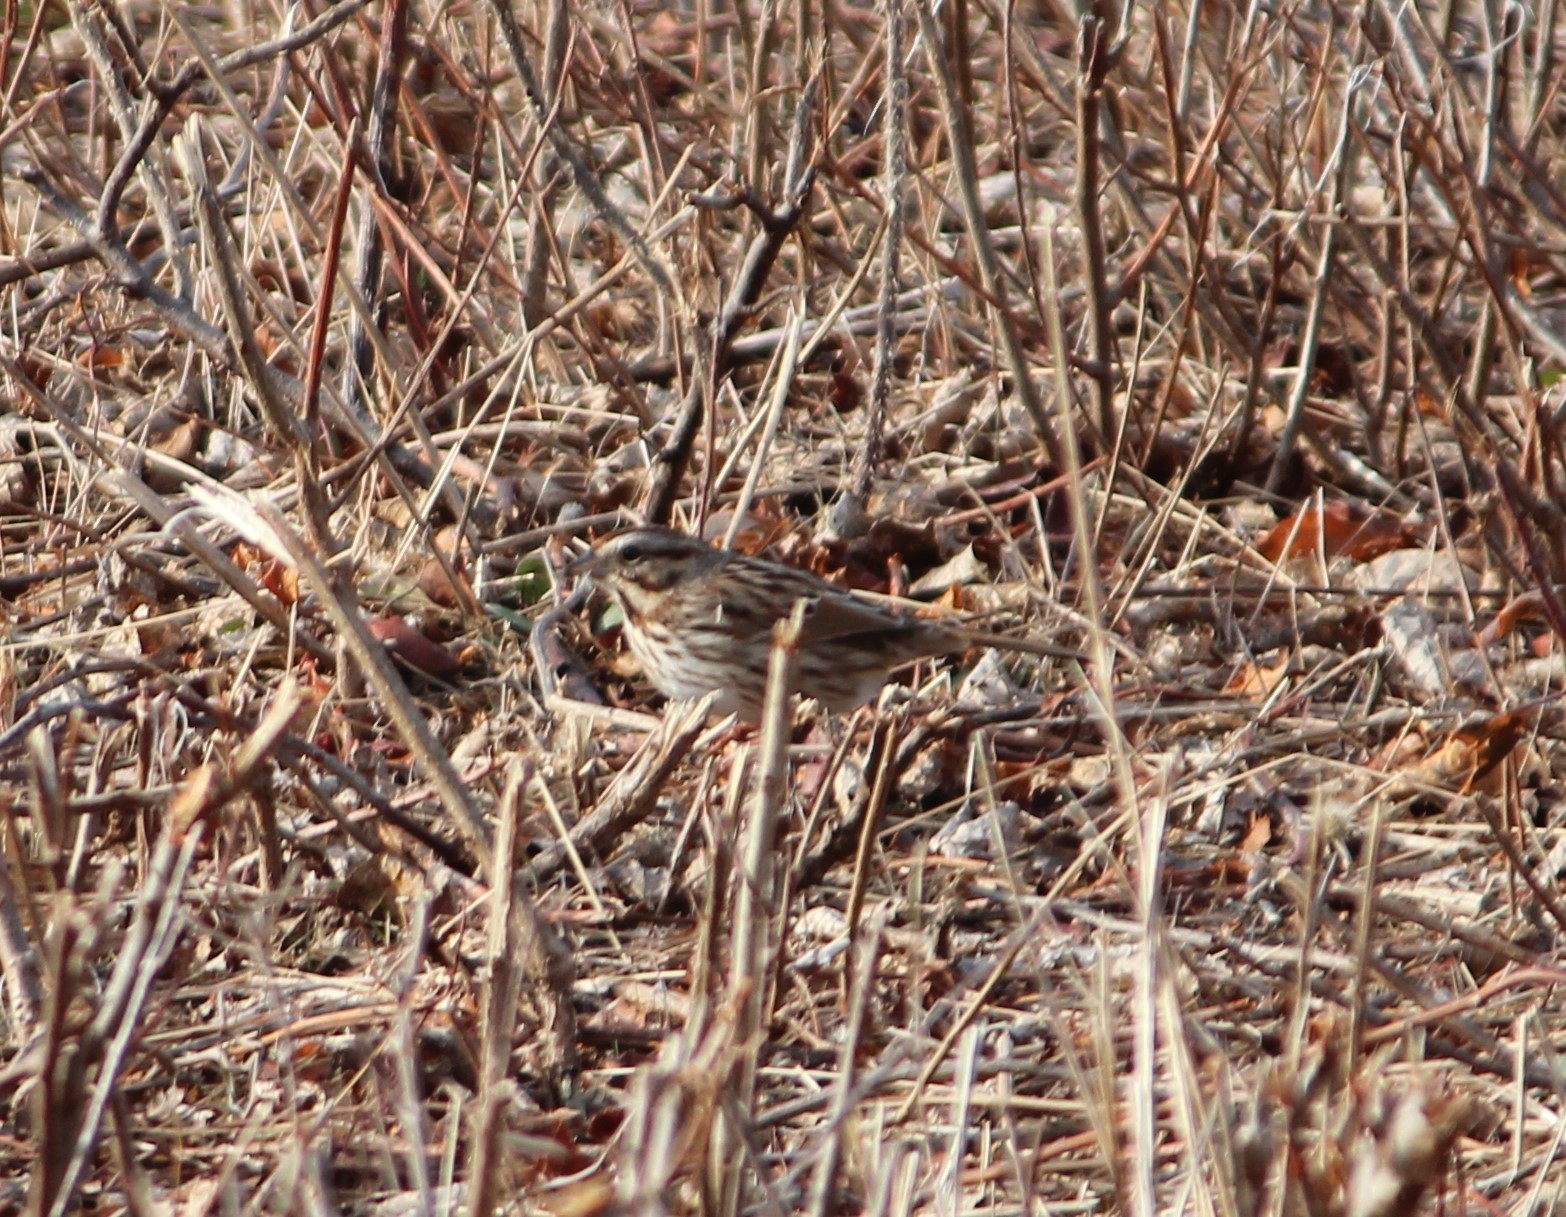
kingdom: Animalia
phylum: Chordata
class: Aves
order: Passeriformes
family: Passerellidae
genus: Melospiza
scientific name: Melospiza melodia
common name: Song sparrow
